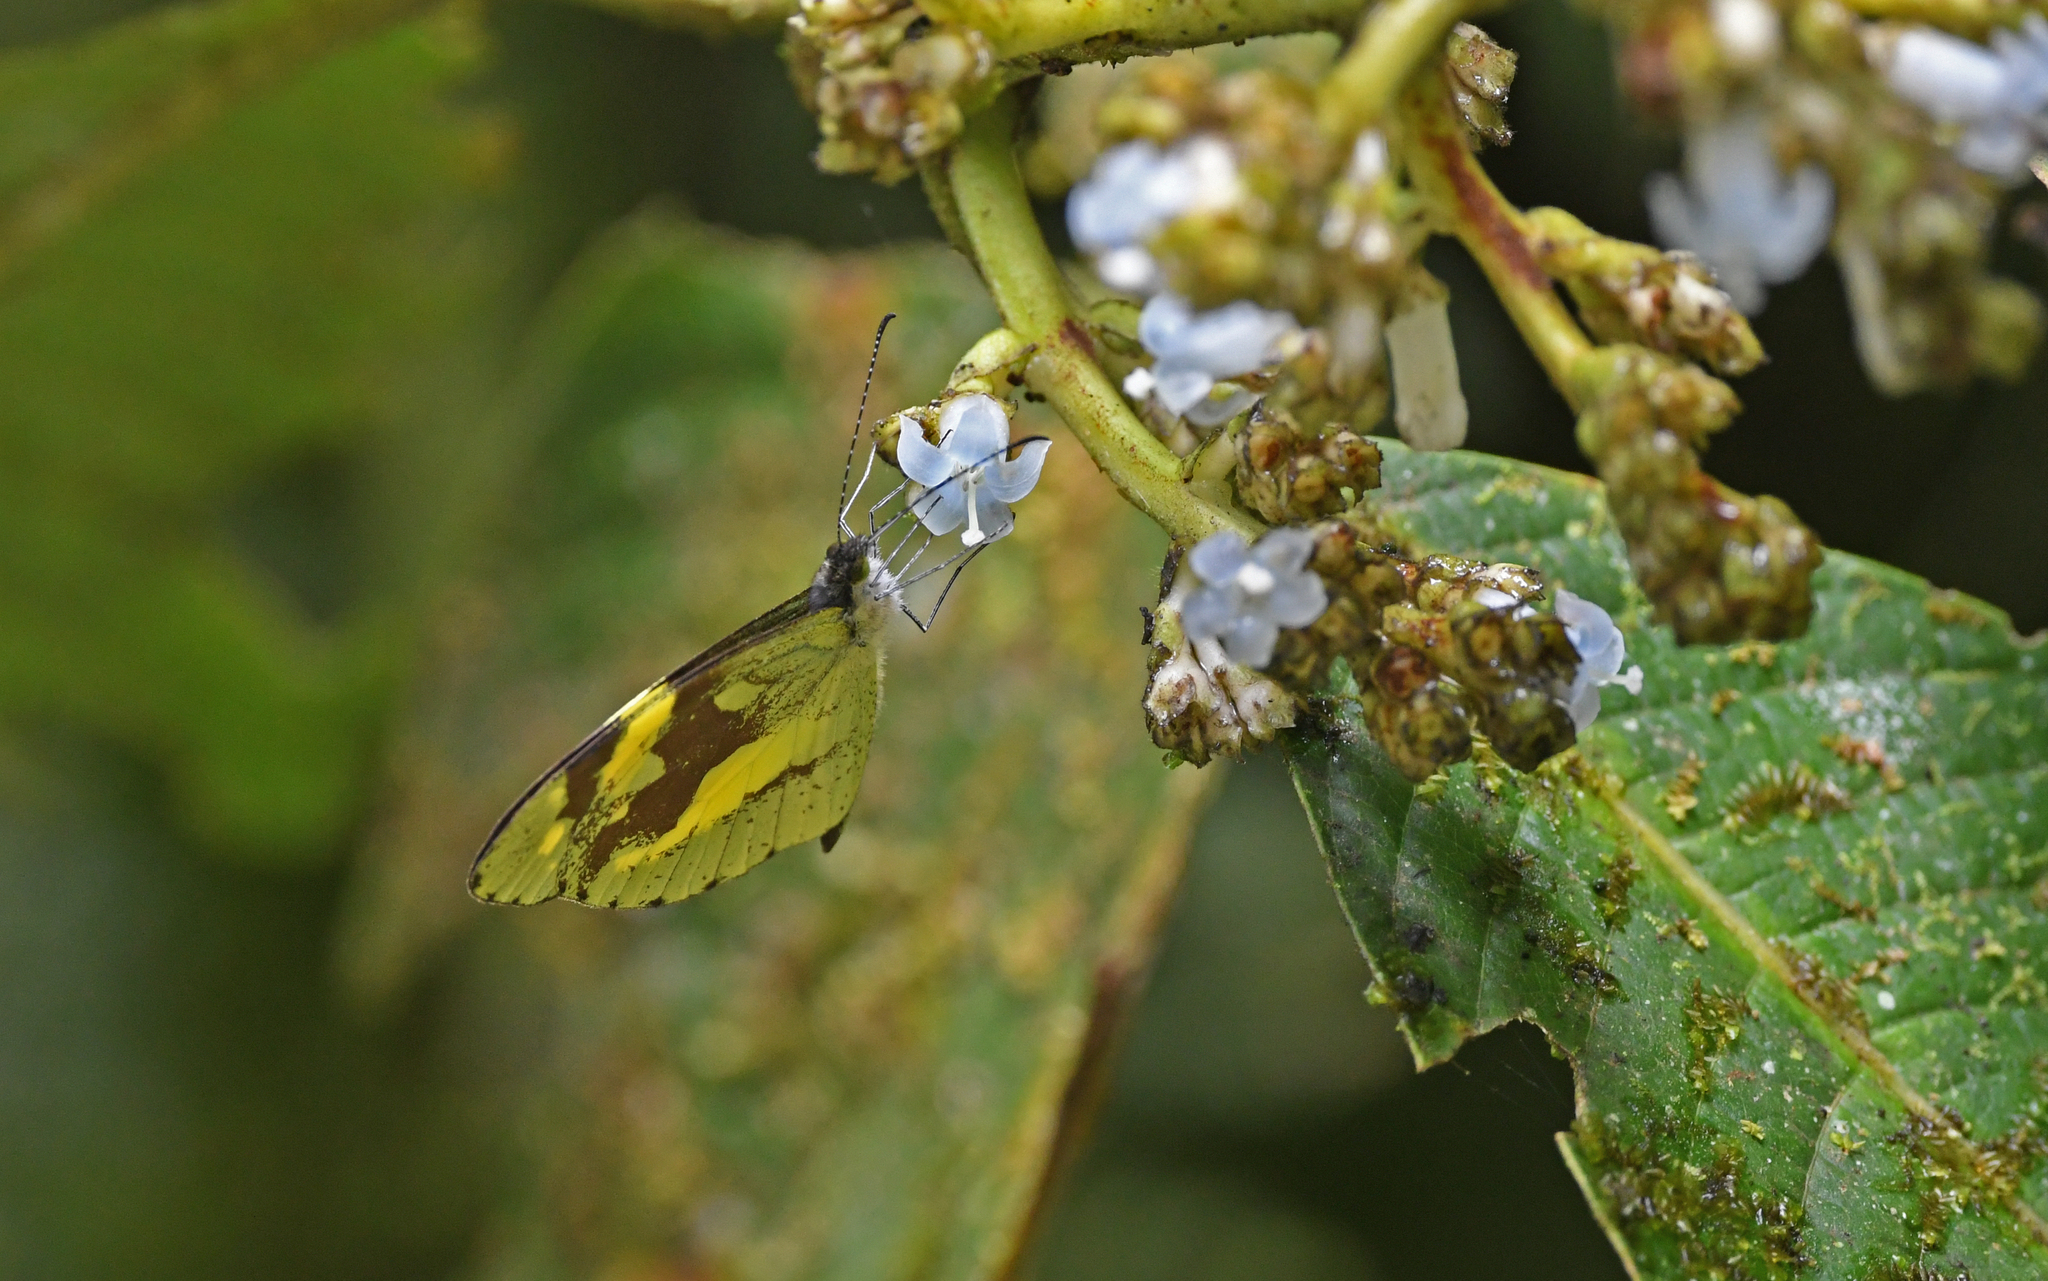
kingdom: Animalia
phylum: Arthropoda
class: Insecta
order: Lepidoptera
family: Pieridae
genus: Dismorphia
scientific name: Dismorphia medora
